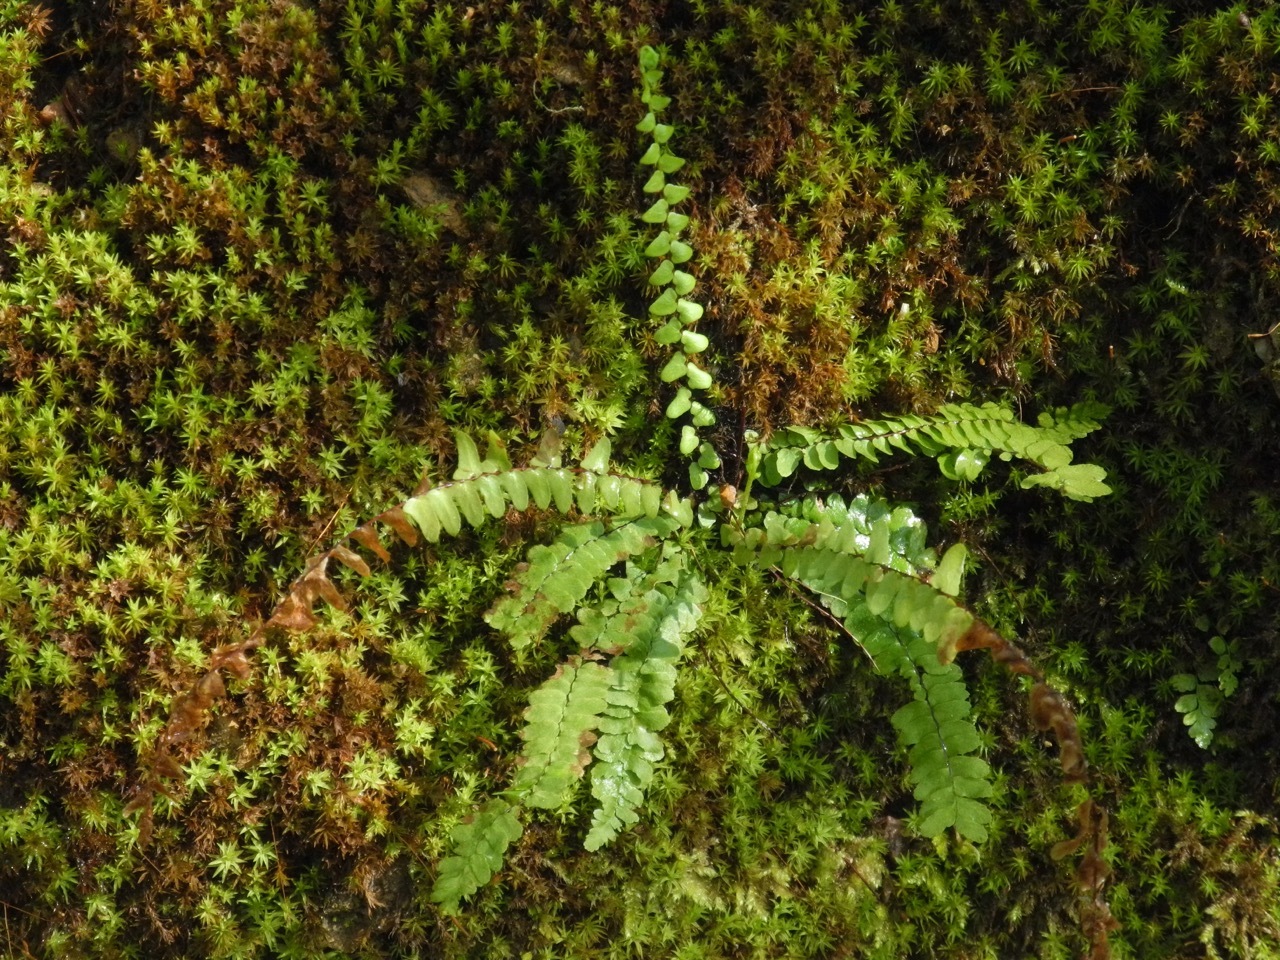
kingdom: Plantae
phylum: Tracheophyta
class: Polypodiopsida
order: Polypodiales
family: Aspleniaceae
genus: Asplenium
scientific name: Asplenium platyneuron
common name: Ebony spleenwort
